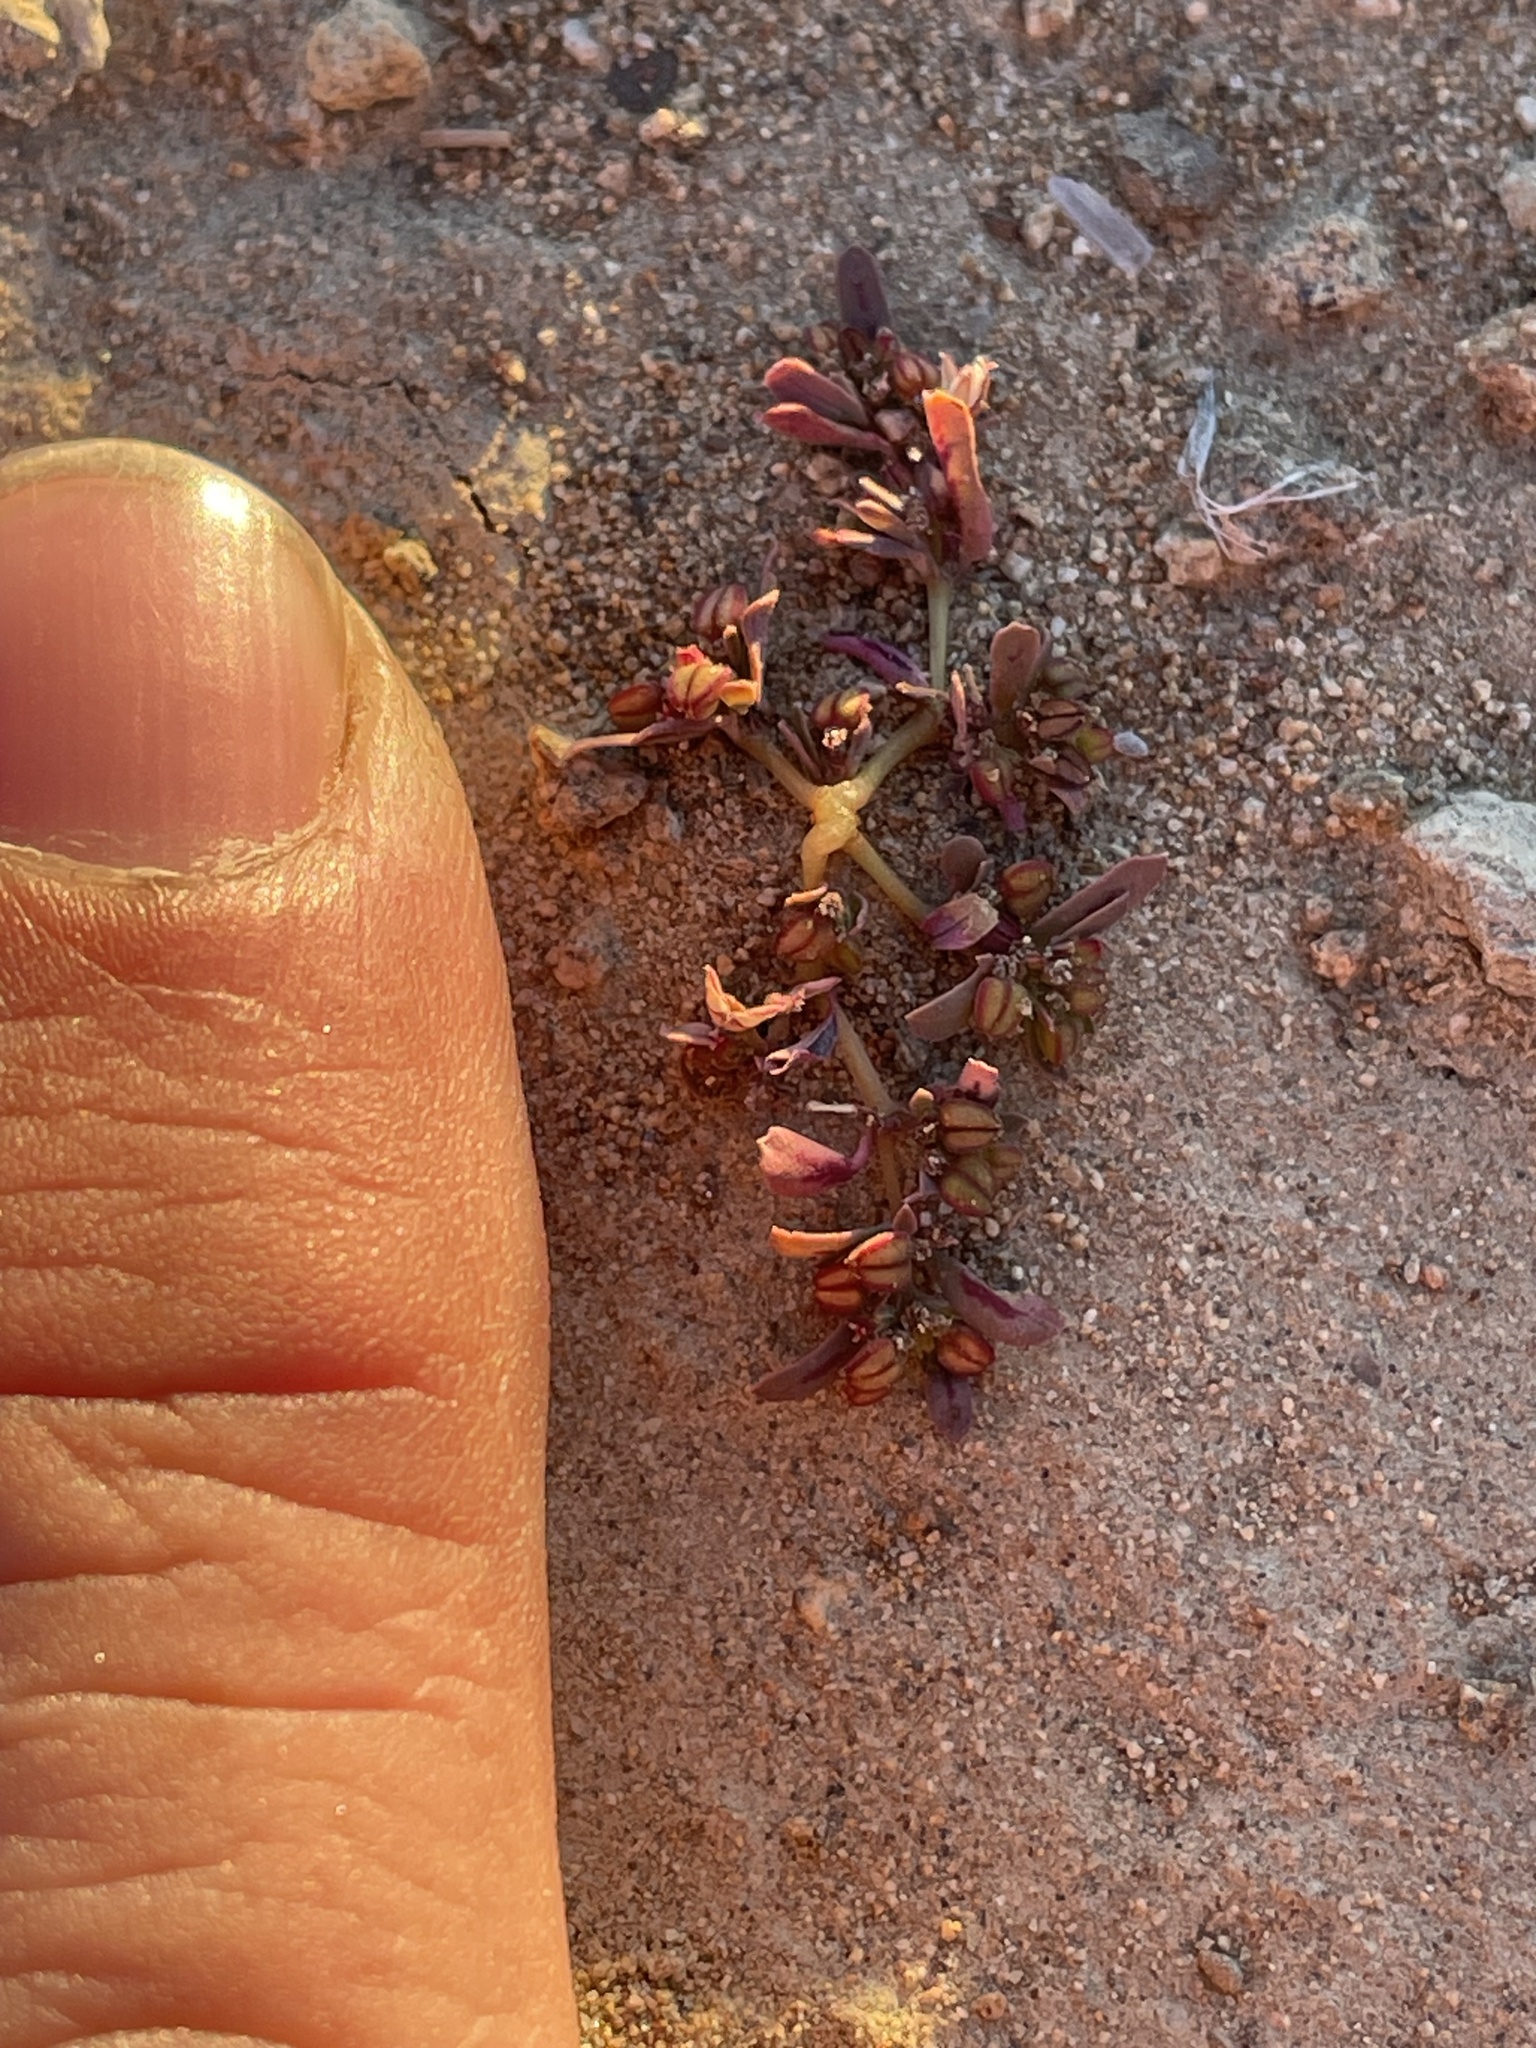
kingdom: Plantae
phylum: Tracheophyta
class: Magnoliopsida
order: Malpighiales
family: Euphorbiaceae
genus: Euphorbia
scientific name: Euphorbia serpillifolia
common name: Thyme-leaf spurge
